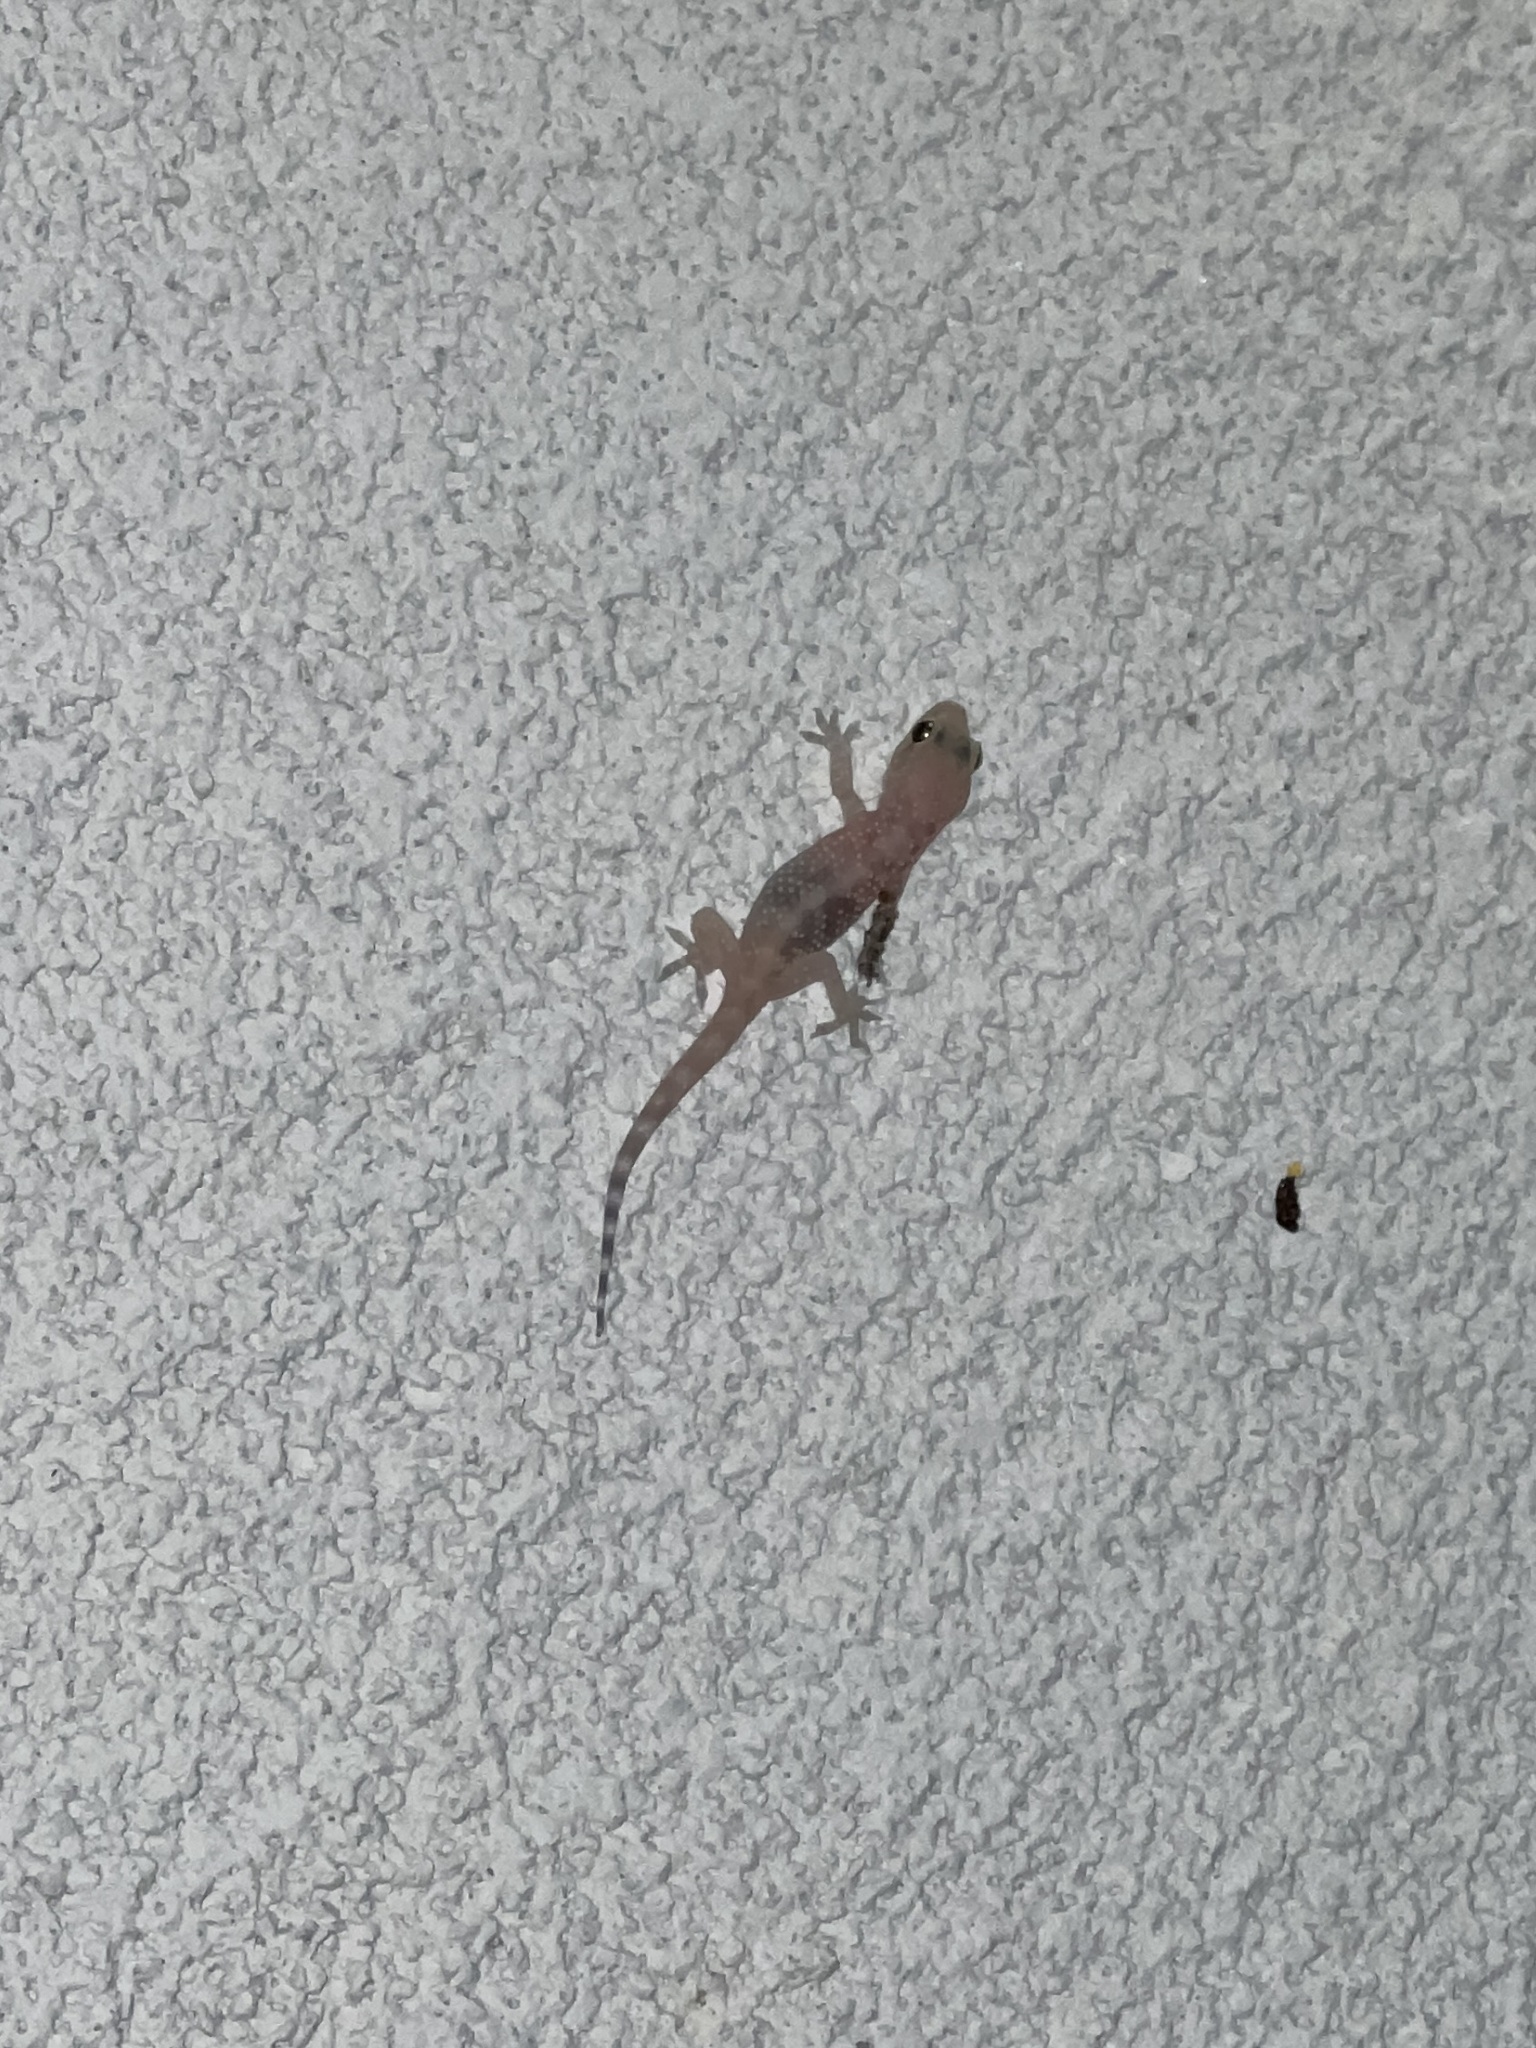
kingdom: Animalia
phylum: Chordata
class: Squamata
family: Gekkonidae
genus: Hemidactylus
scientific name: Hemidactylus turcicus
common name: Turkish gecko
